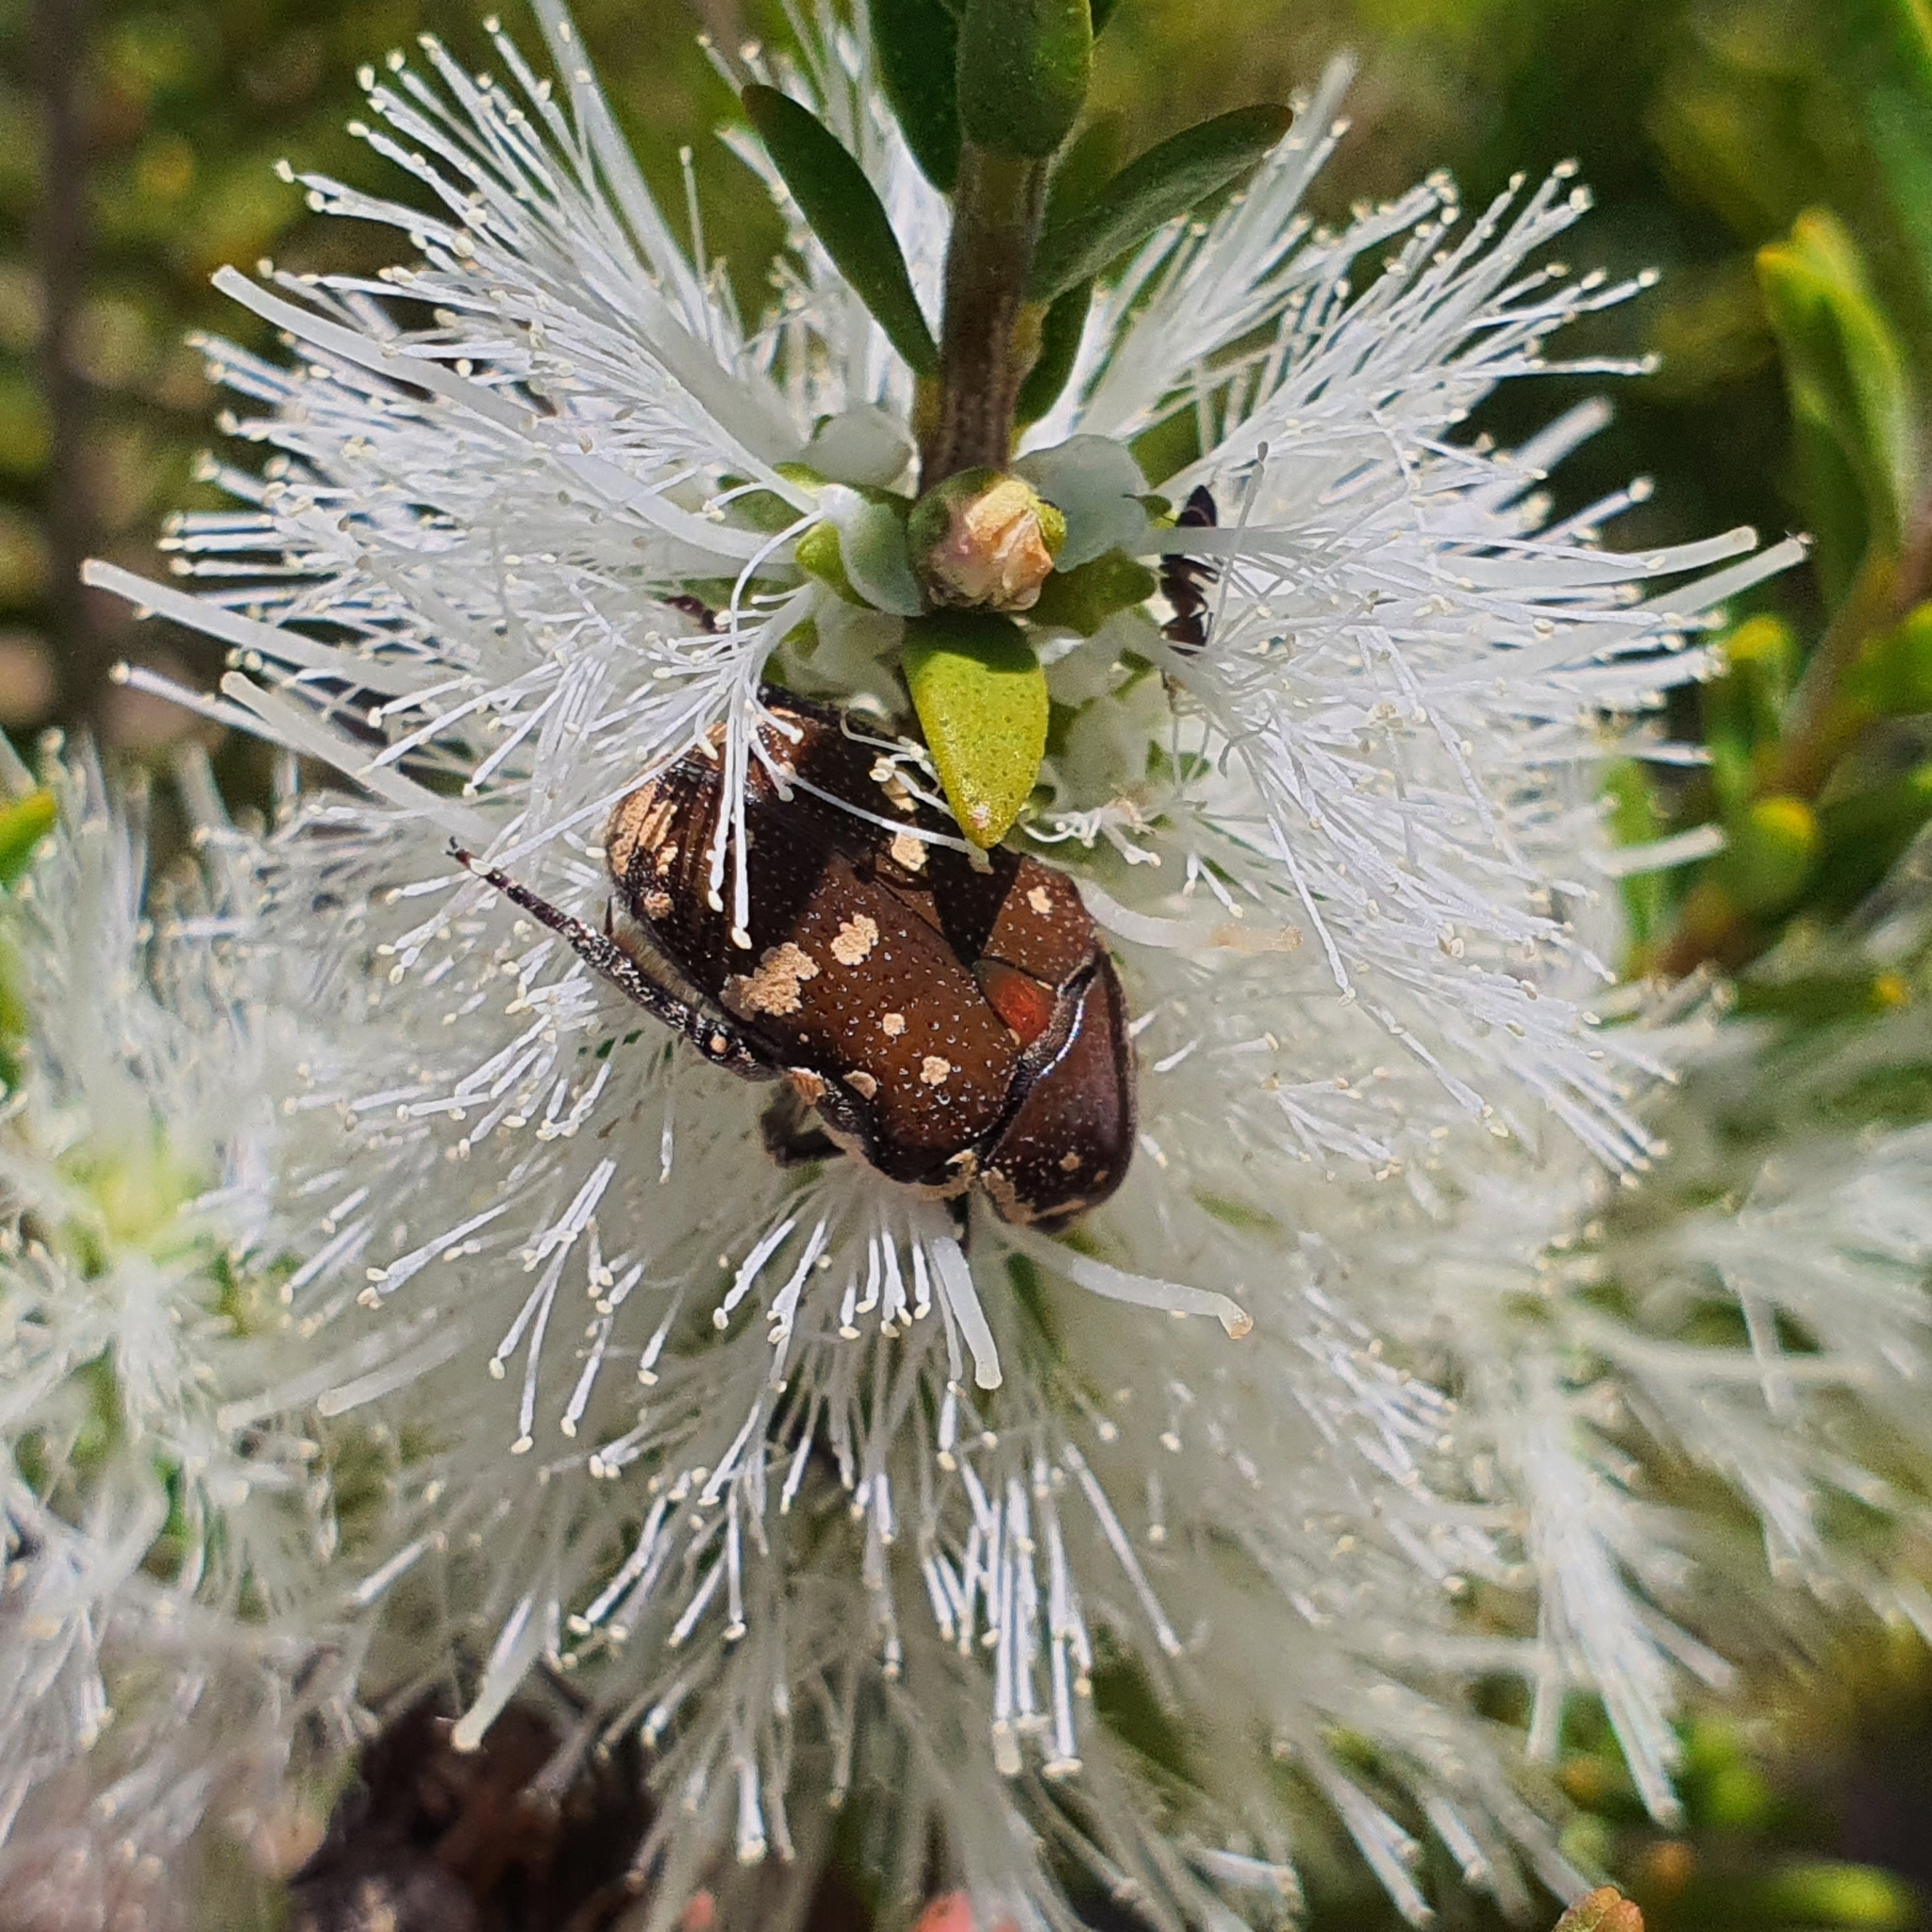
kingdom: Animalia
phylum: Arthropoda
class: Insecta
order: Coleoptera
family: Scarabaeidae
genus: Glycyphana
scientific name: Glycyphana stolata
